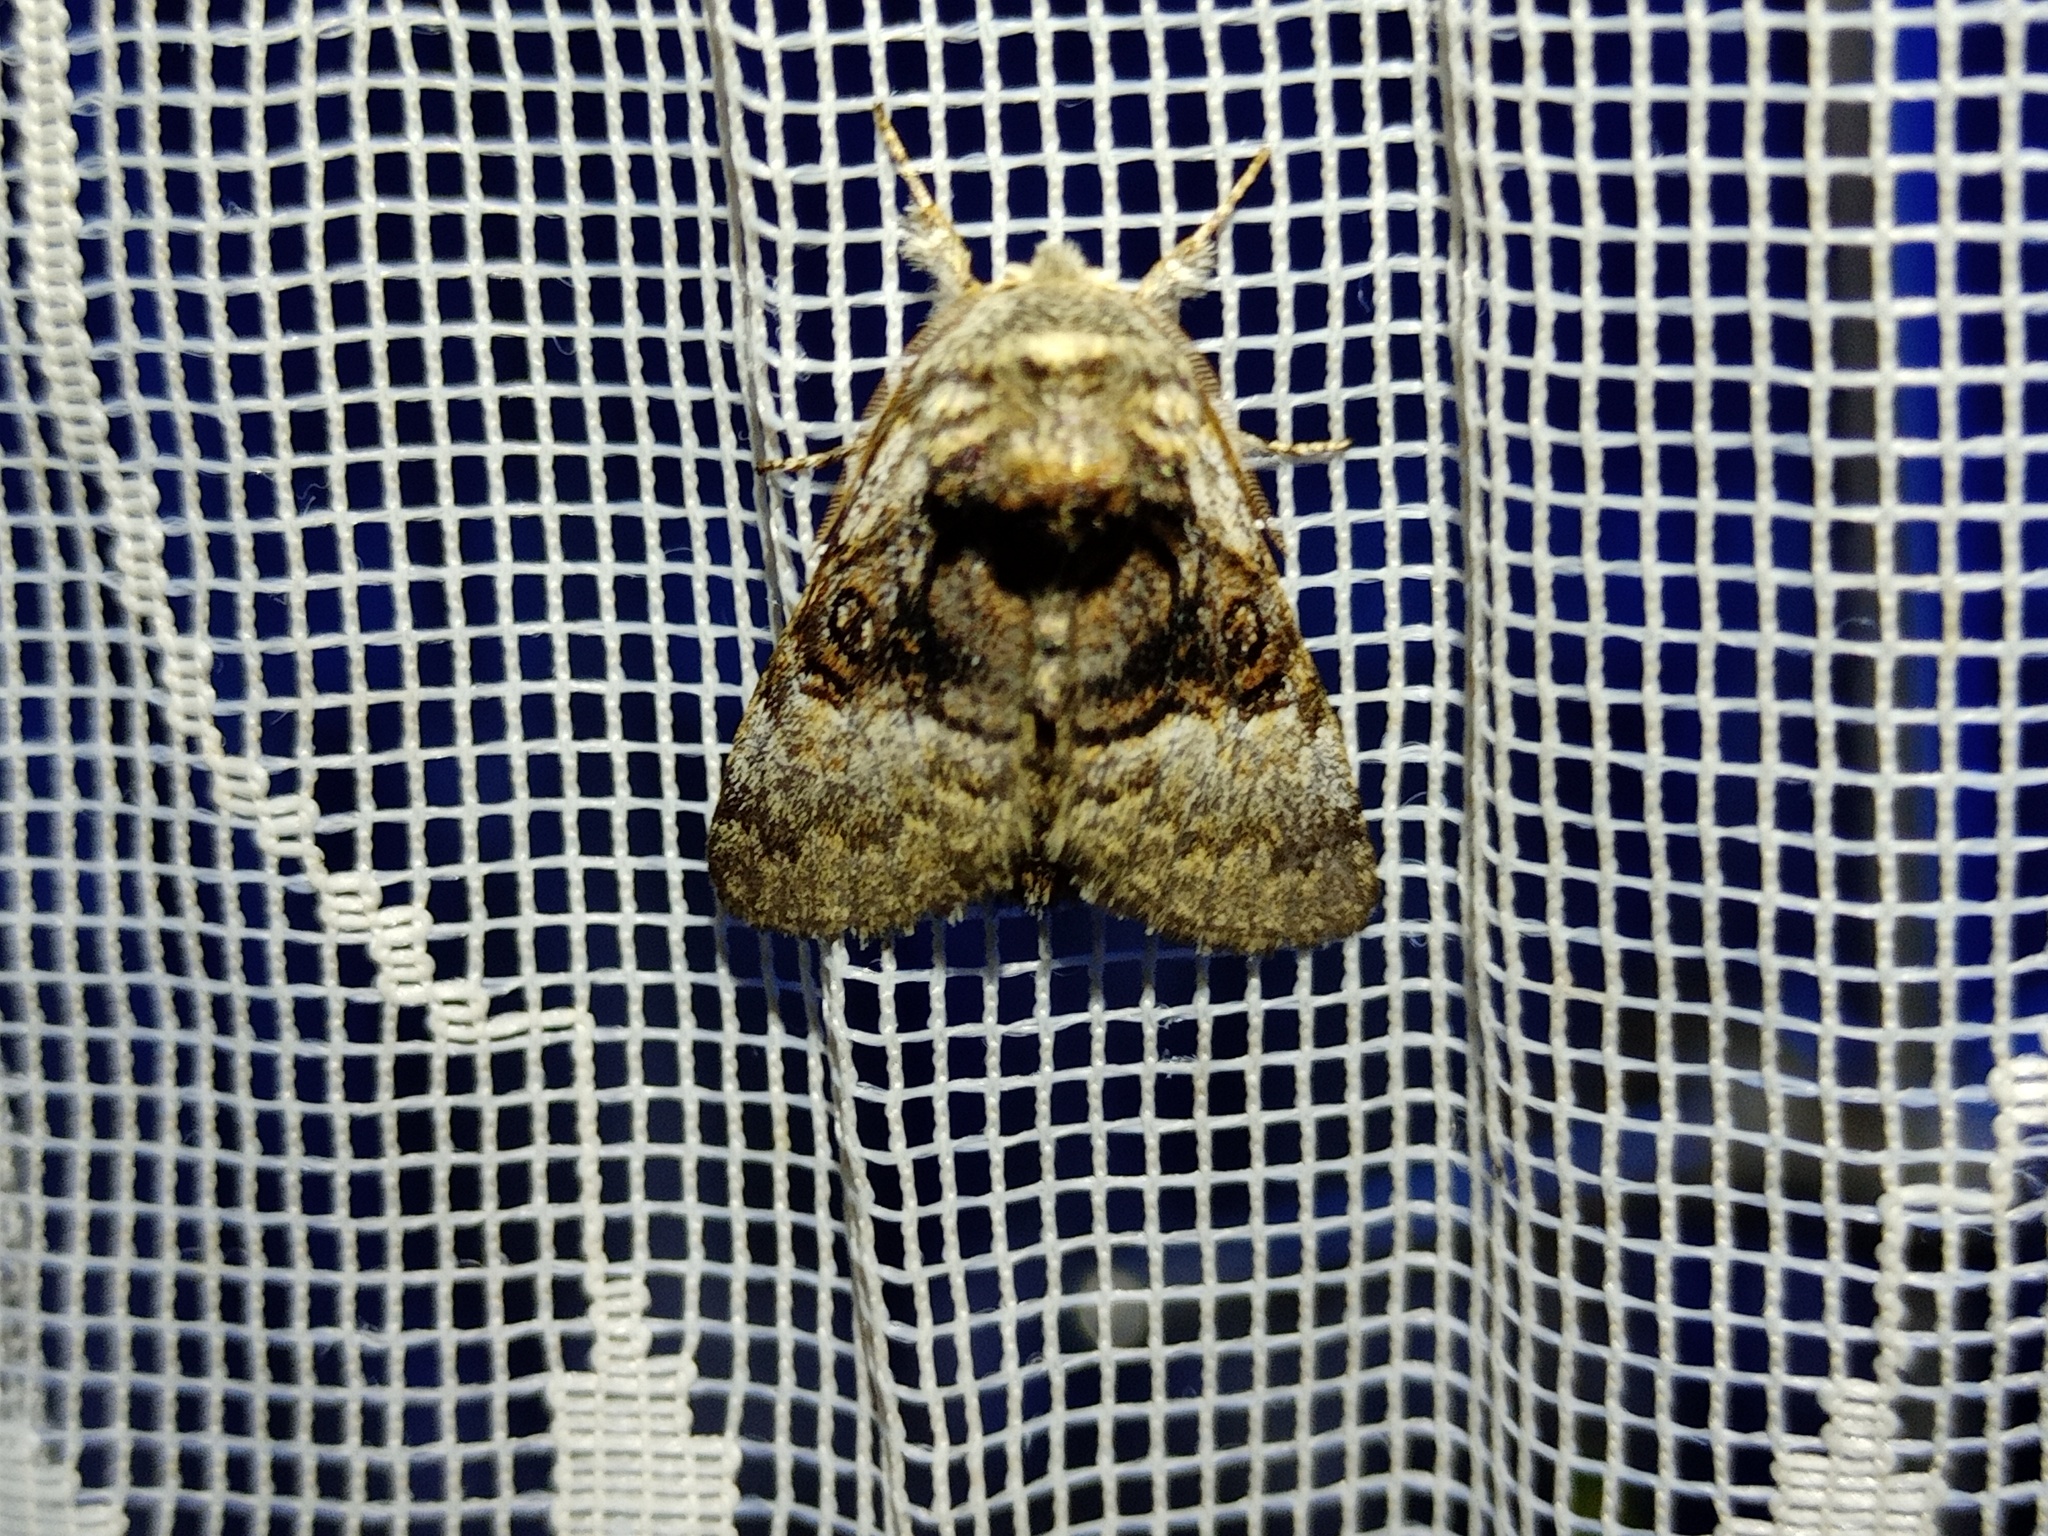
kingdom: Animalia
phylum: Arthropoda
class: Insecta
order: Lepidoptera
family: Noctuidae
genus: Colocasia
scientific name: Colocasia coryli
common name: Nut-tree tussock
